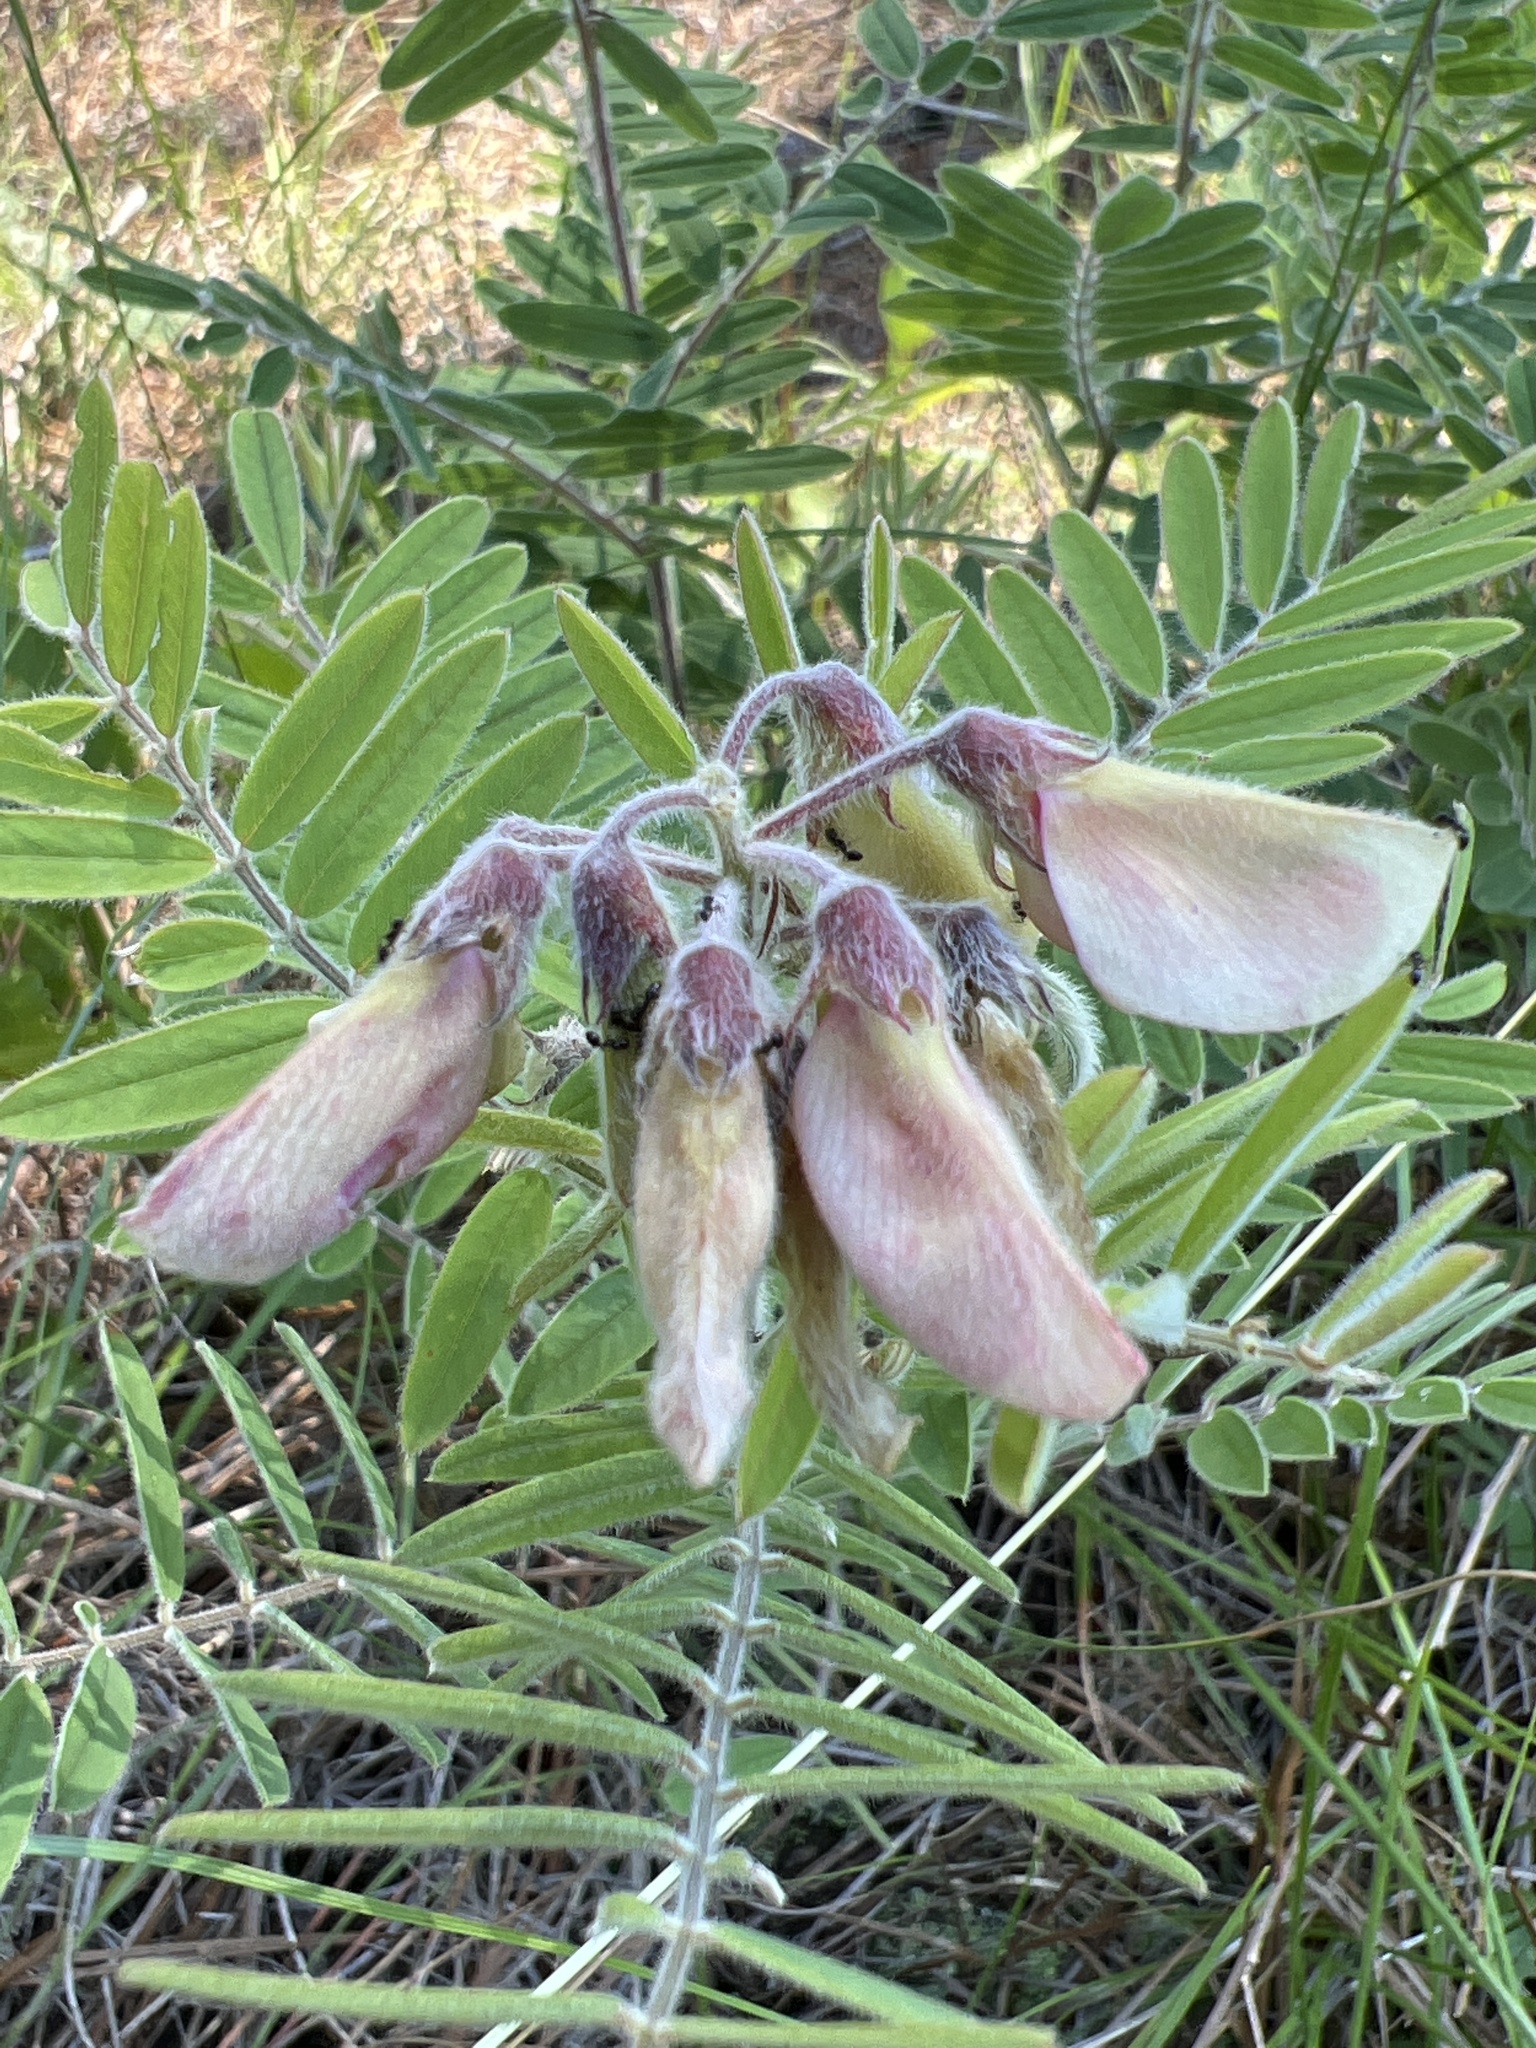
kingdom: Plantae
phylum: Tracheophyta
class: Magnoliopsida
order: Fabales
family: Fabaceae
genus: Tephrosia
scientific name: Tephrosia virginiana
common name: Rabbit-pea
